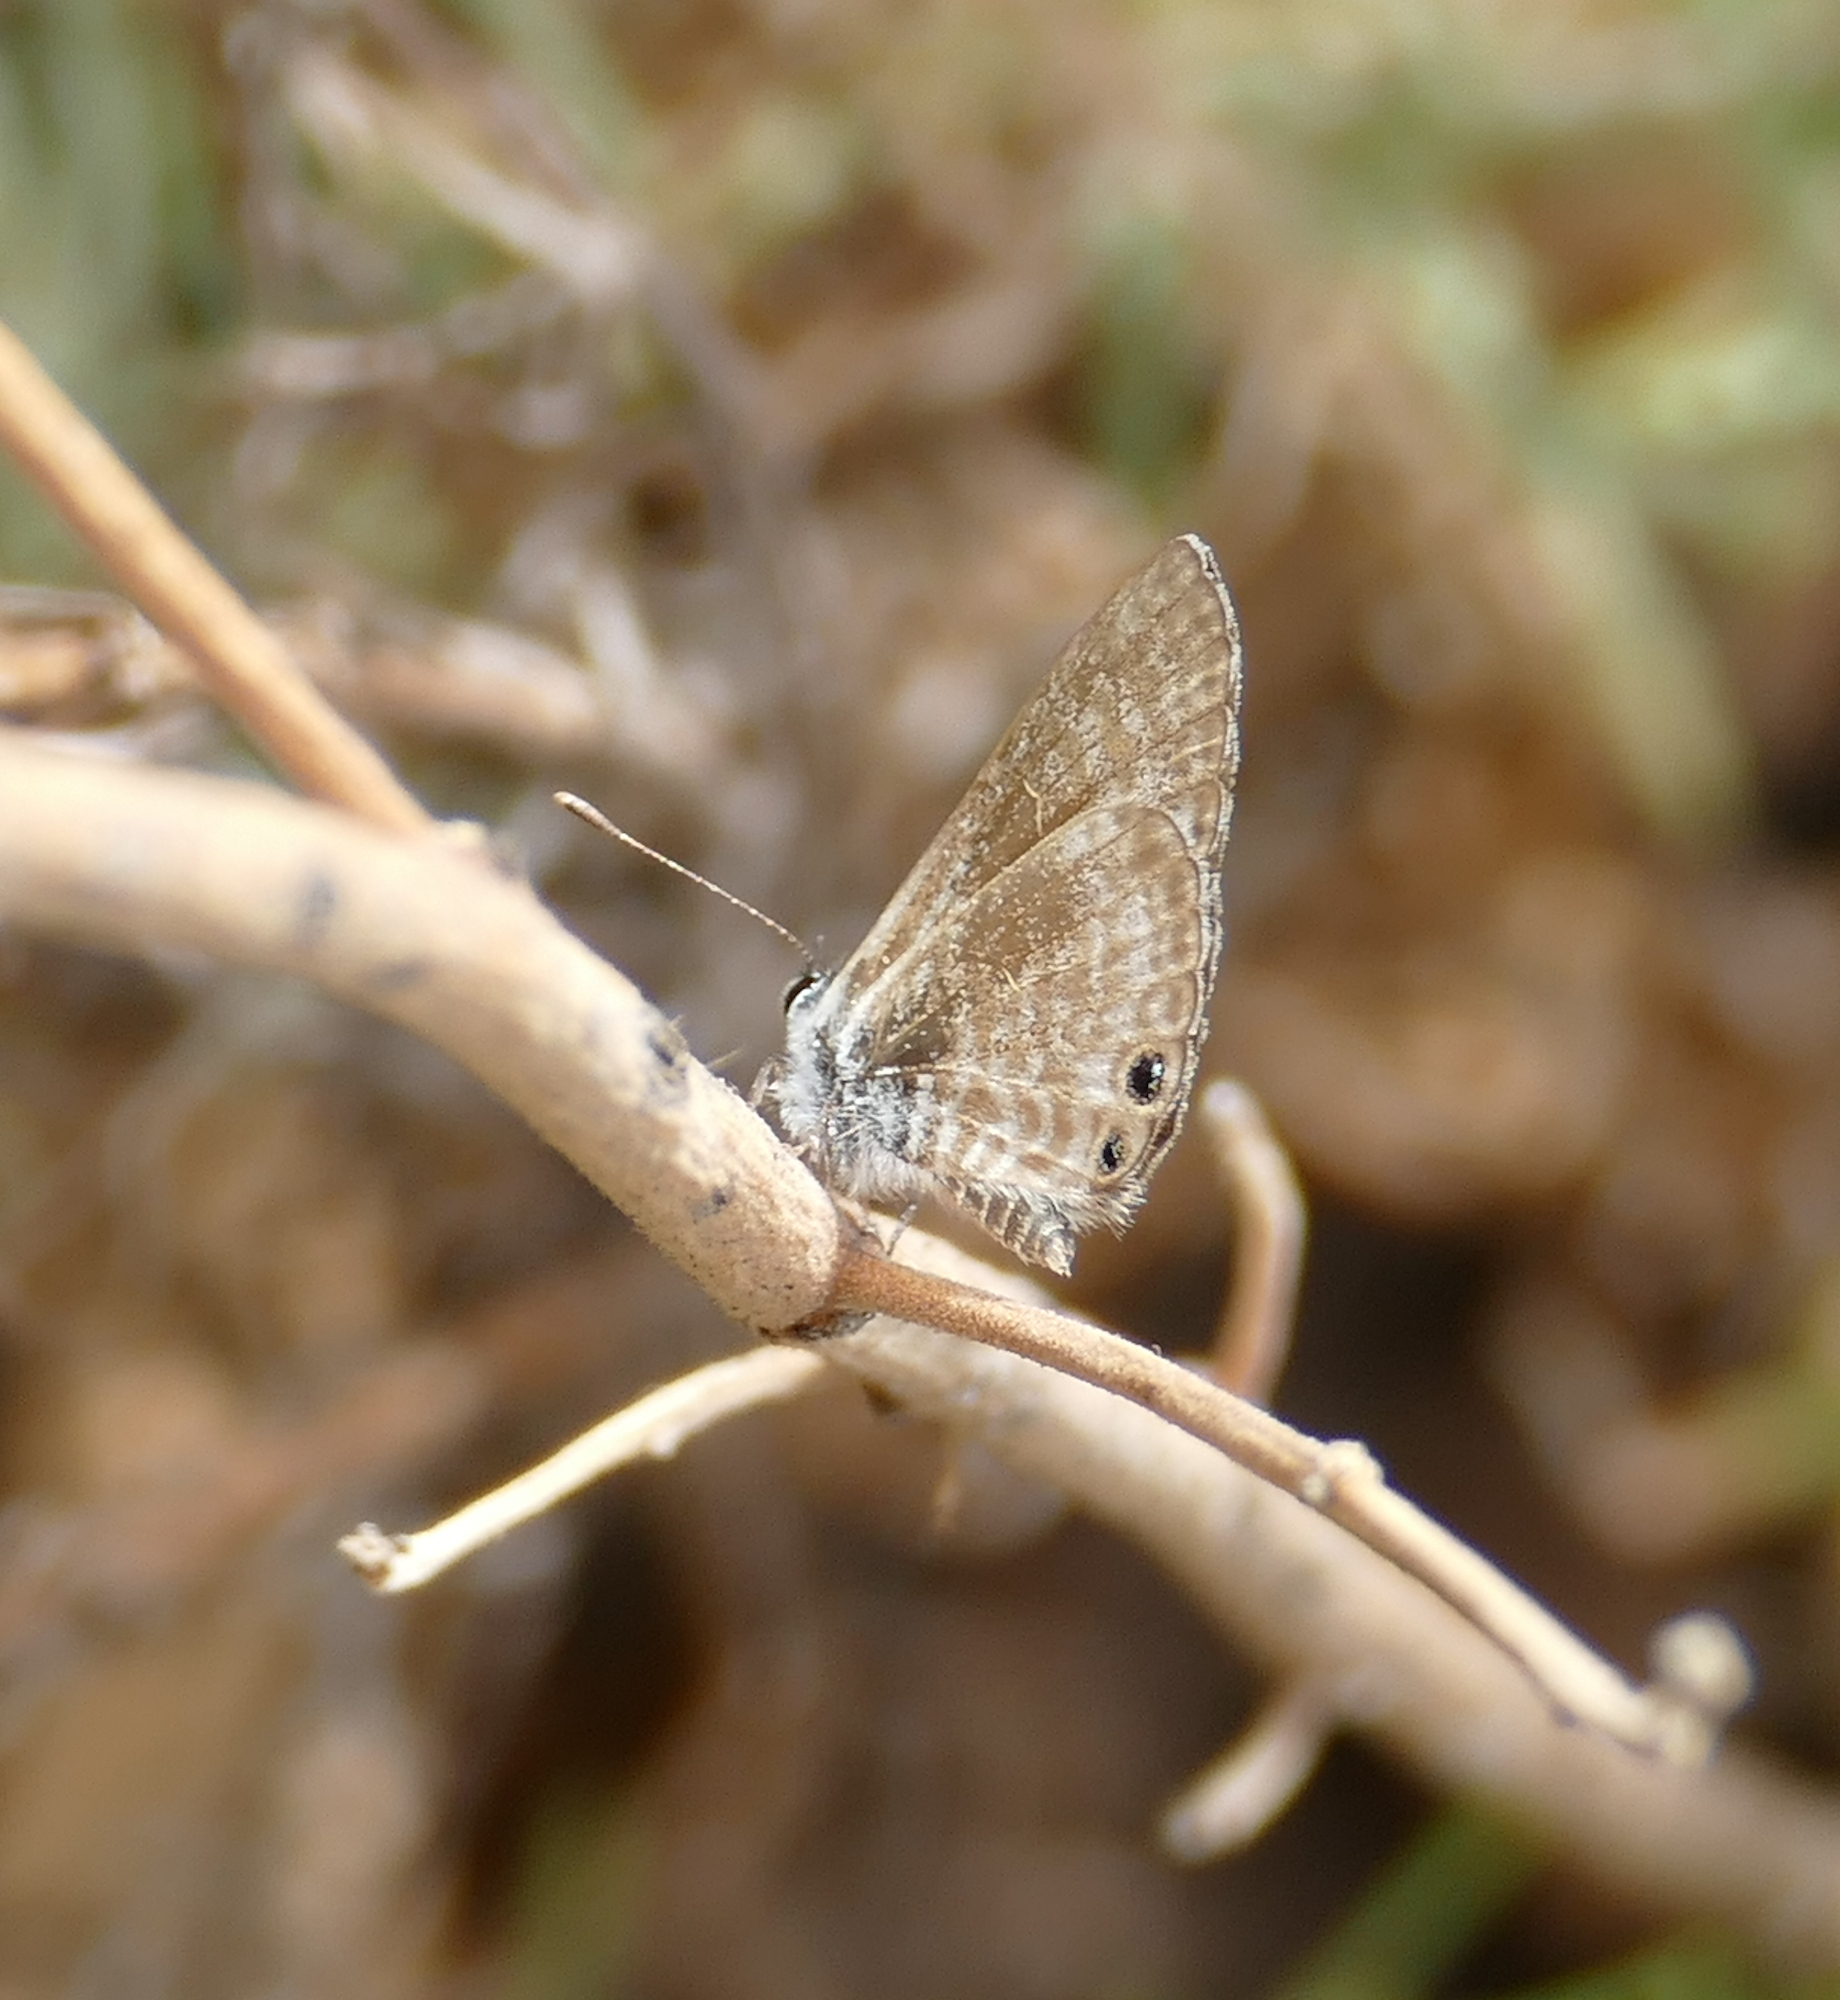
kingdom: Animalia
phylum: Arthropoda
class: Insecta
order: Lepidoptera
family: Lycaenidae
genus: Leptotes
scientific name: Leptotes marina
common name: Marine blue
